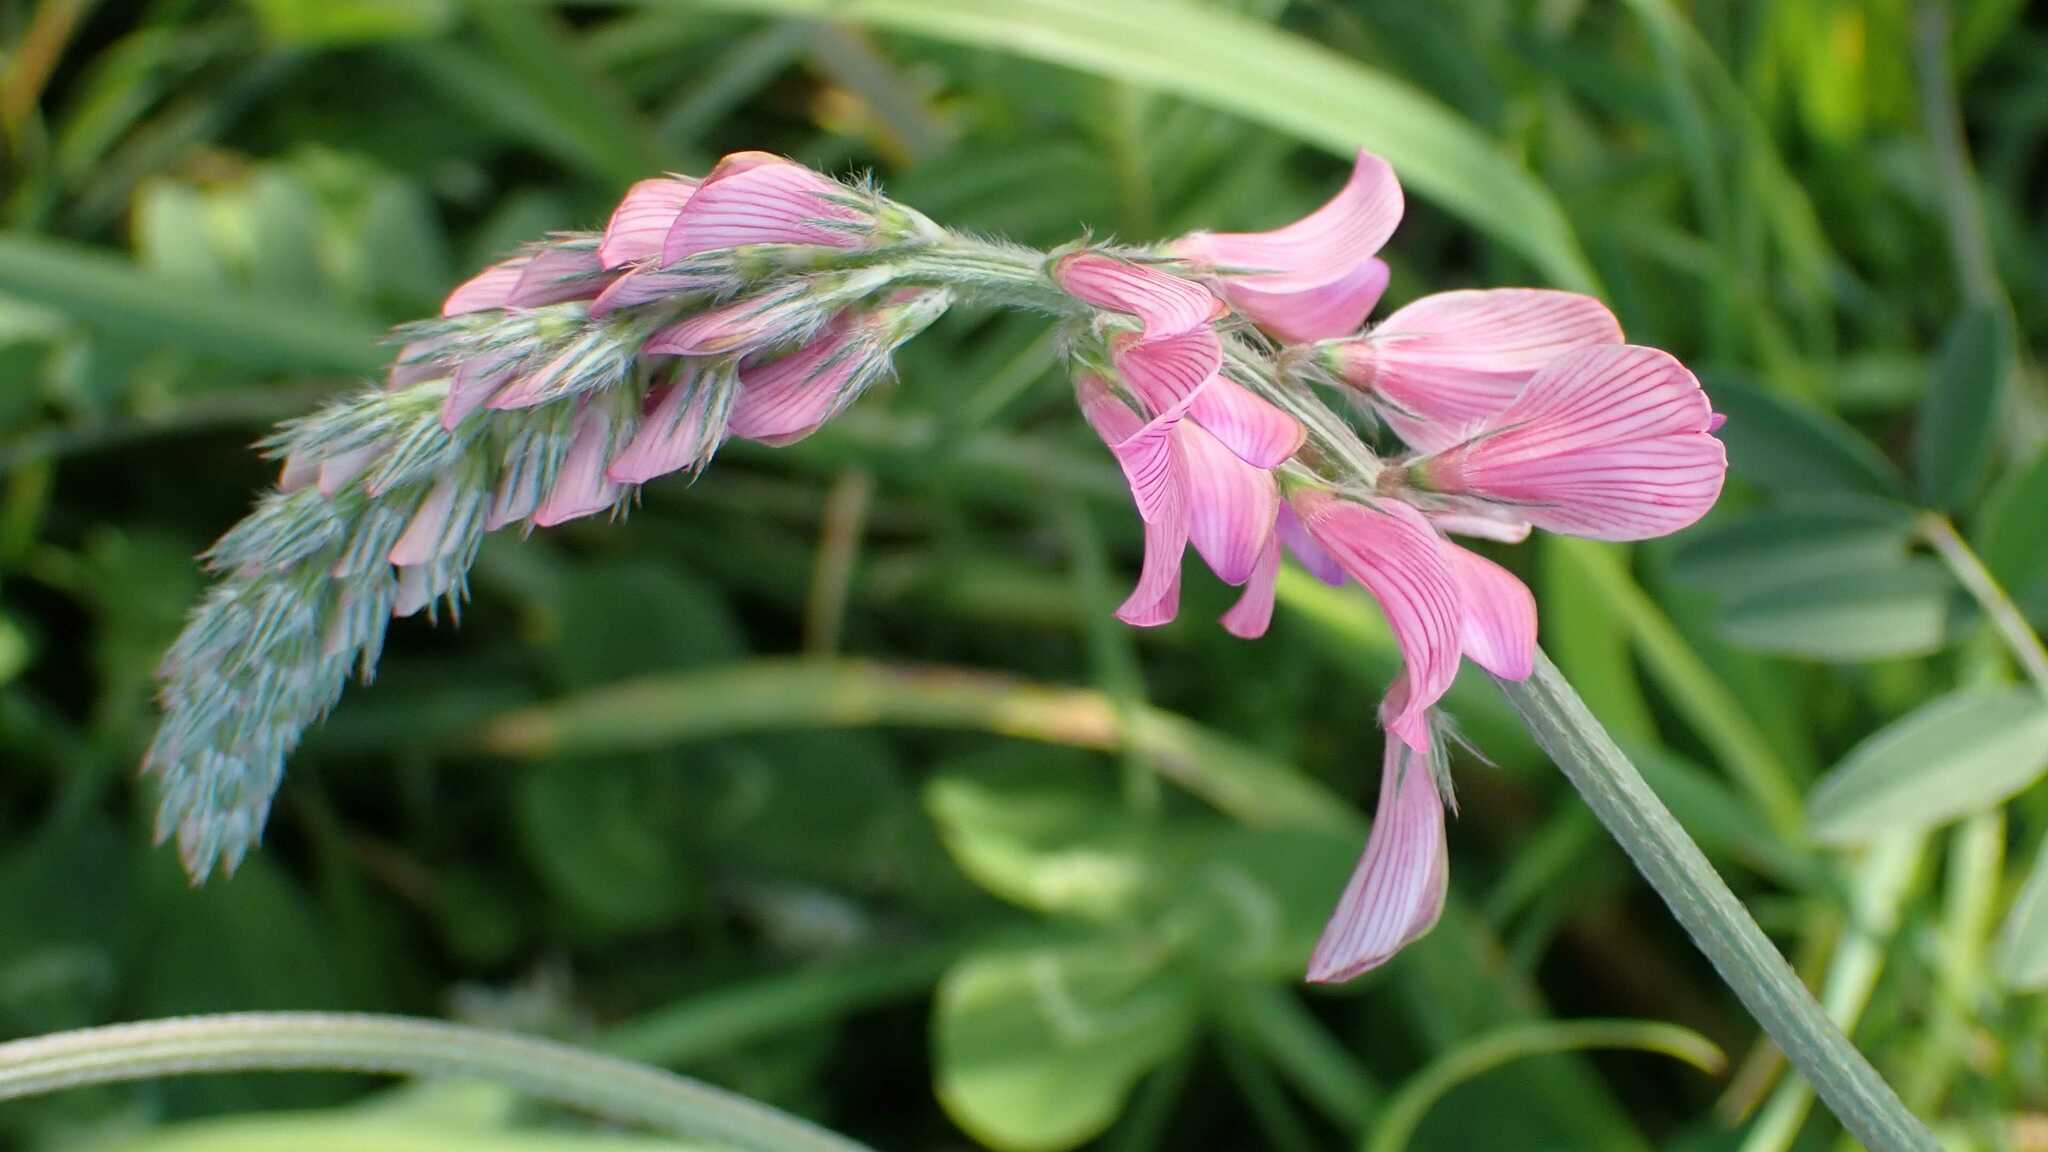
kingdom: Plantae
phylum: Tracheophyta
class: Magnoliopsida
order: Fabales
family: Fabaceae
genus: Onobrychis
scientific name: Onobrychis viciifolia
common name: Sainfoin
